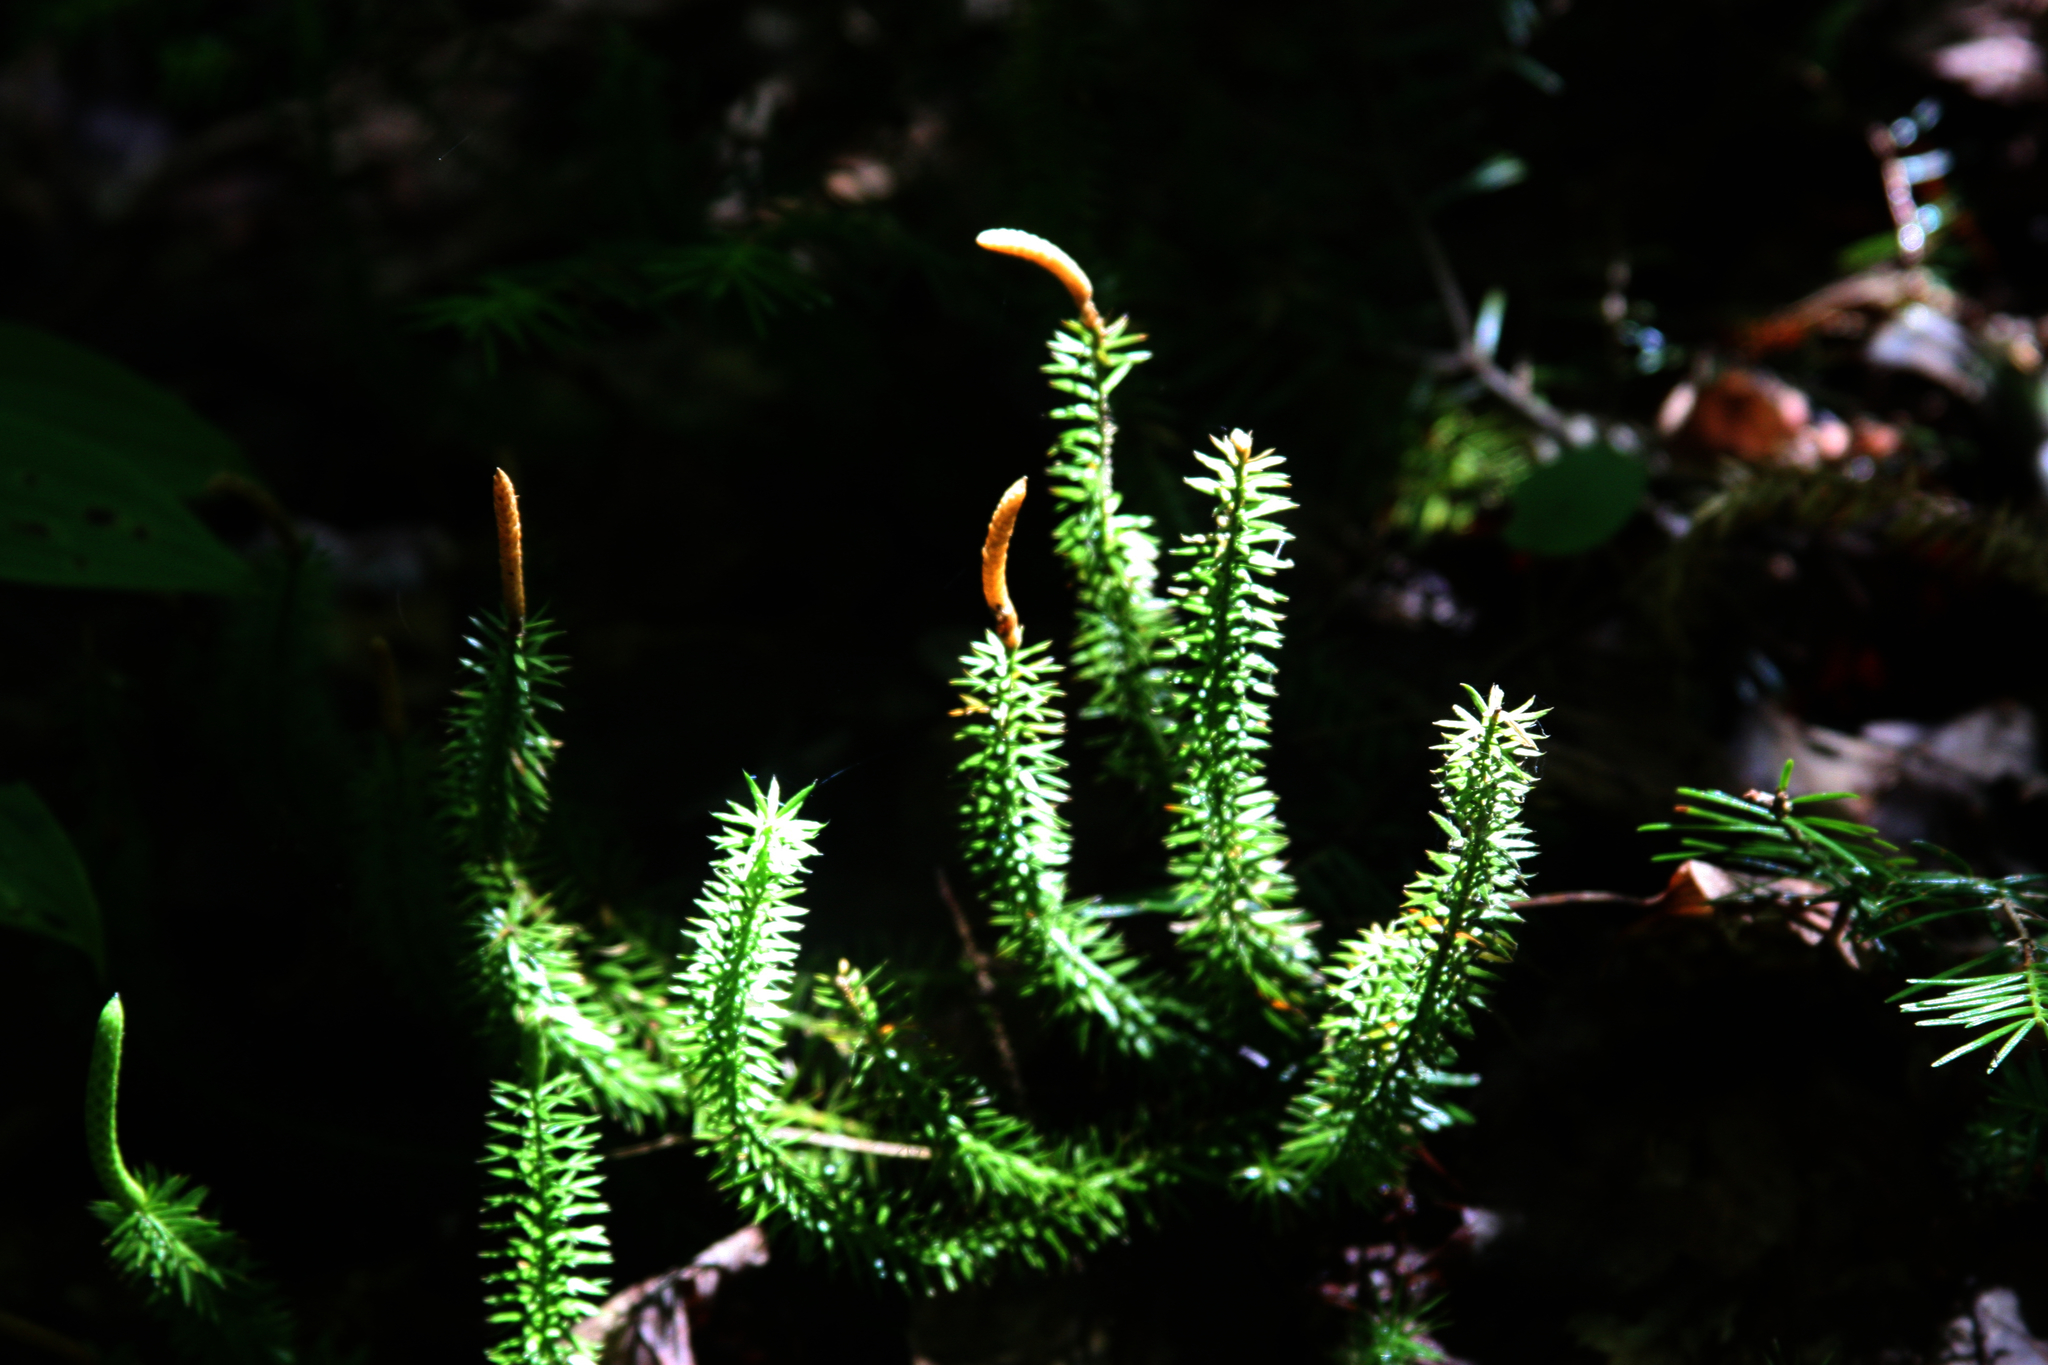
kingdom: Plantae
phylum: Tracheophyta
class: Lycopodiopsida
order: Lycopodiales
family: Lycopodiaceae
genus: Spinulum
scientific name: Spinulum annotinum
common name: Interrupted club-moss
